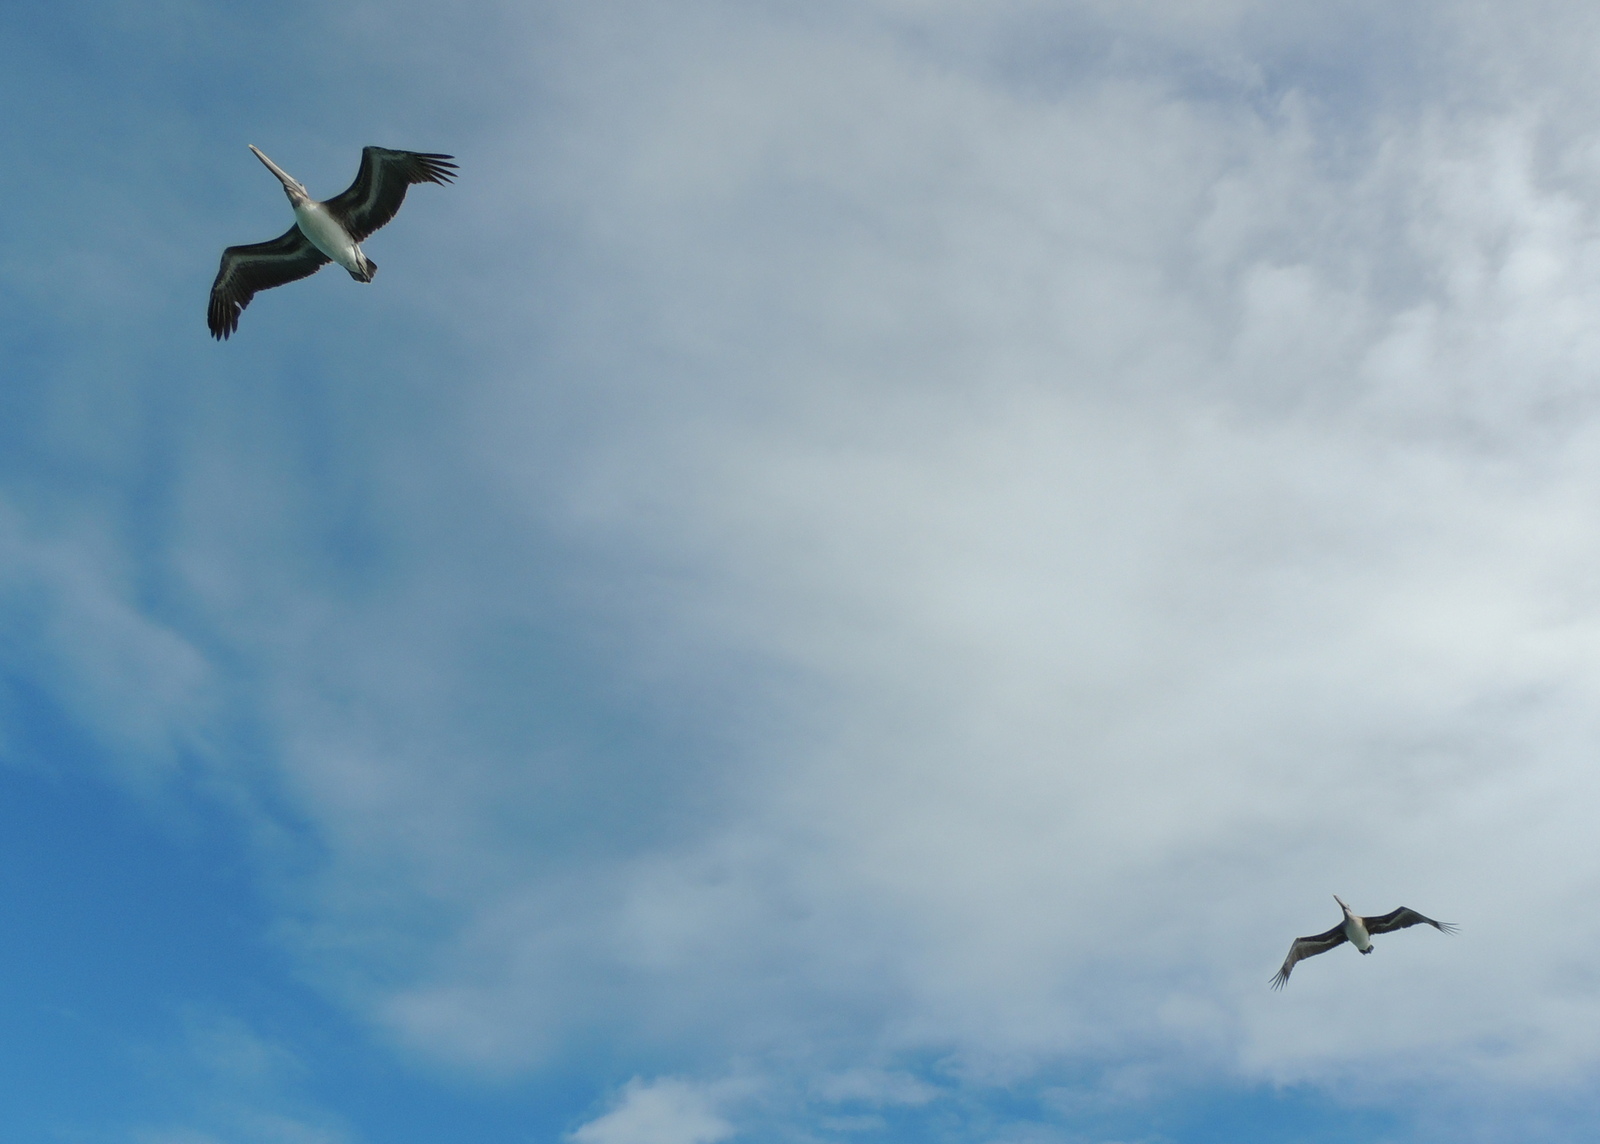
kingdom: Animalia
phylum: Chordata
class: Aves
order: Pelecaniformes
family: Pelecanidae
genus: Pelecanus
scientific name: Pelecanus occidentalis
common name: Brown pelican
